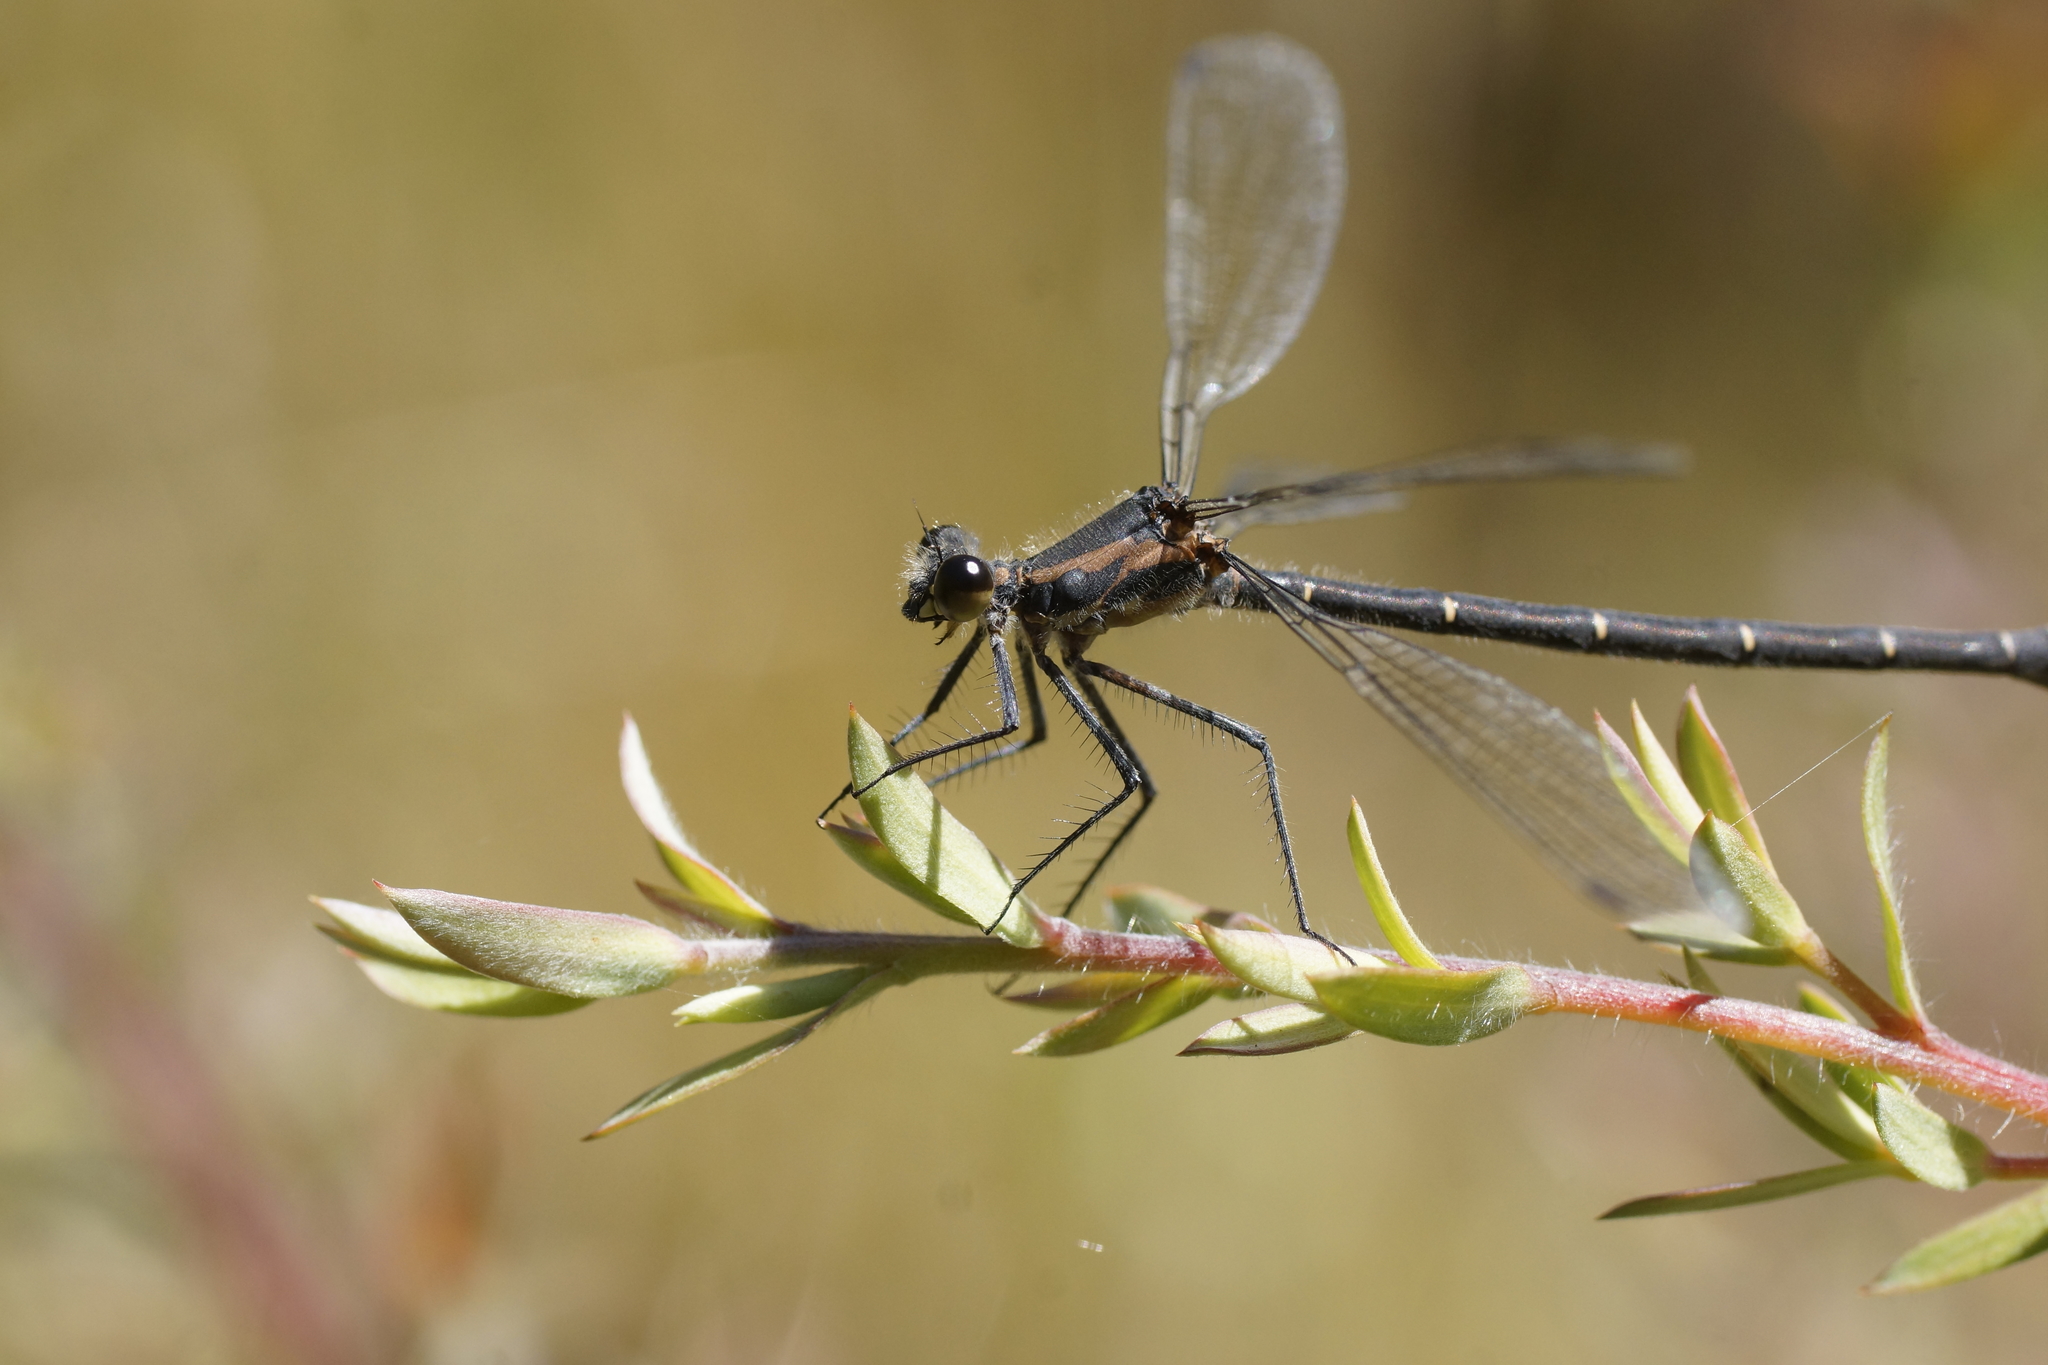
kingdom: Animalia
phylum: Arthropoda
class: Insecta
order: Odonata
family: Argiolestidae
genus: Austroargiolestes
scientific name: Austroargiolestes icteromelas
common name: Common flatwing
